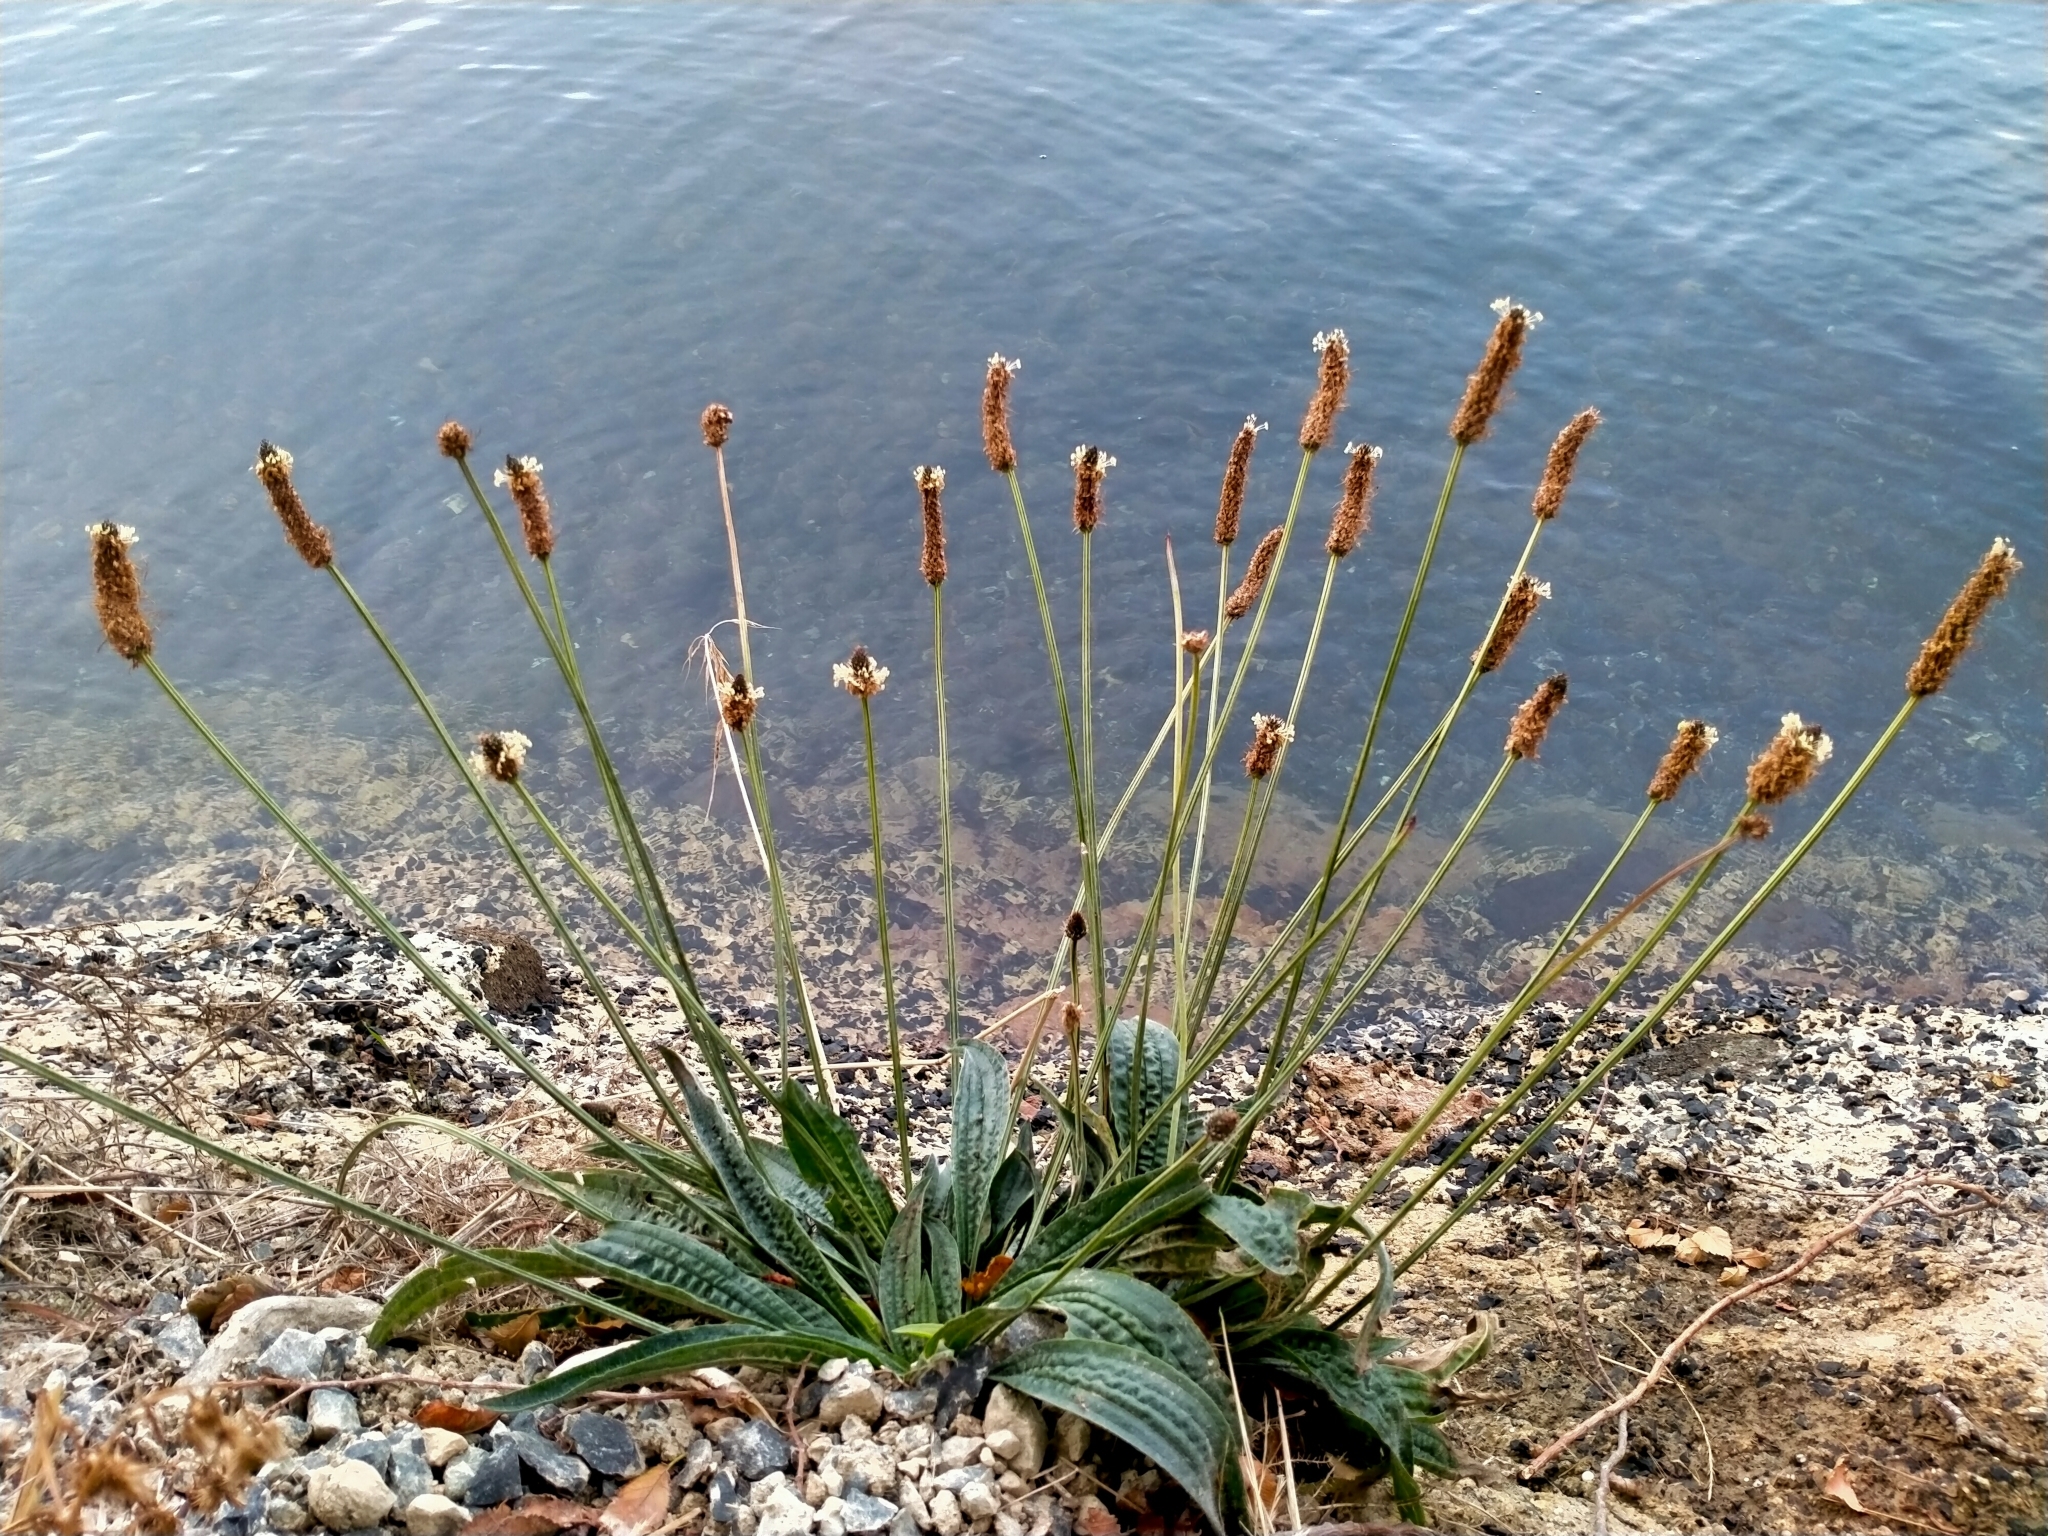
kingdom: Plantae
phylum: Tracheophyta
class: Magnoliopsida
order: Lamiales
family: Plantaginaceae
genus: Plantago
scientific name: Plantago lanceolata
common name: Ribwort plantain
